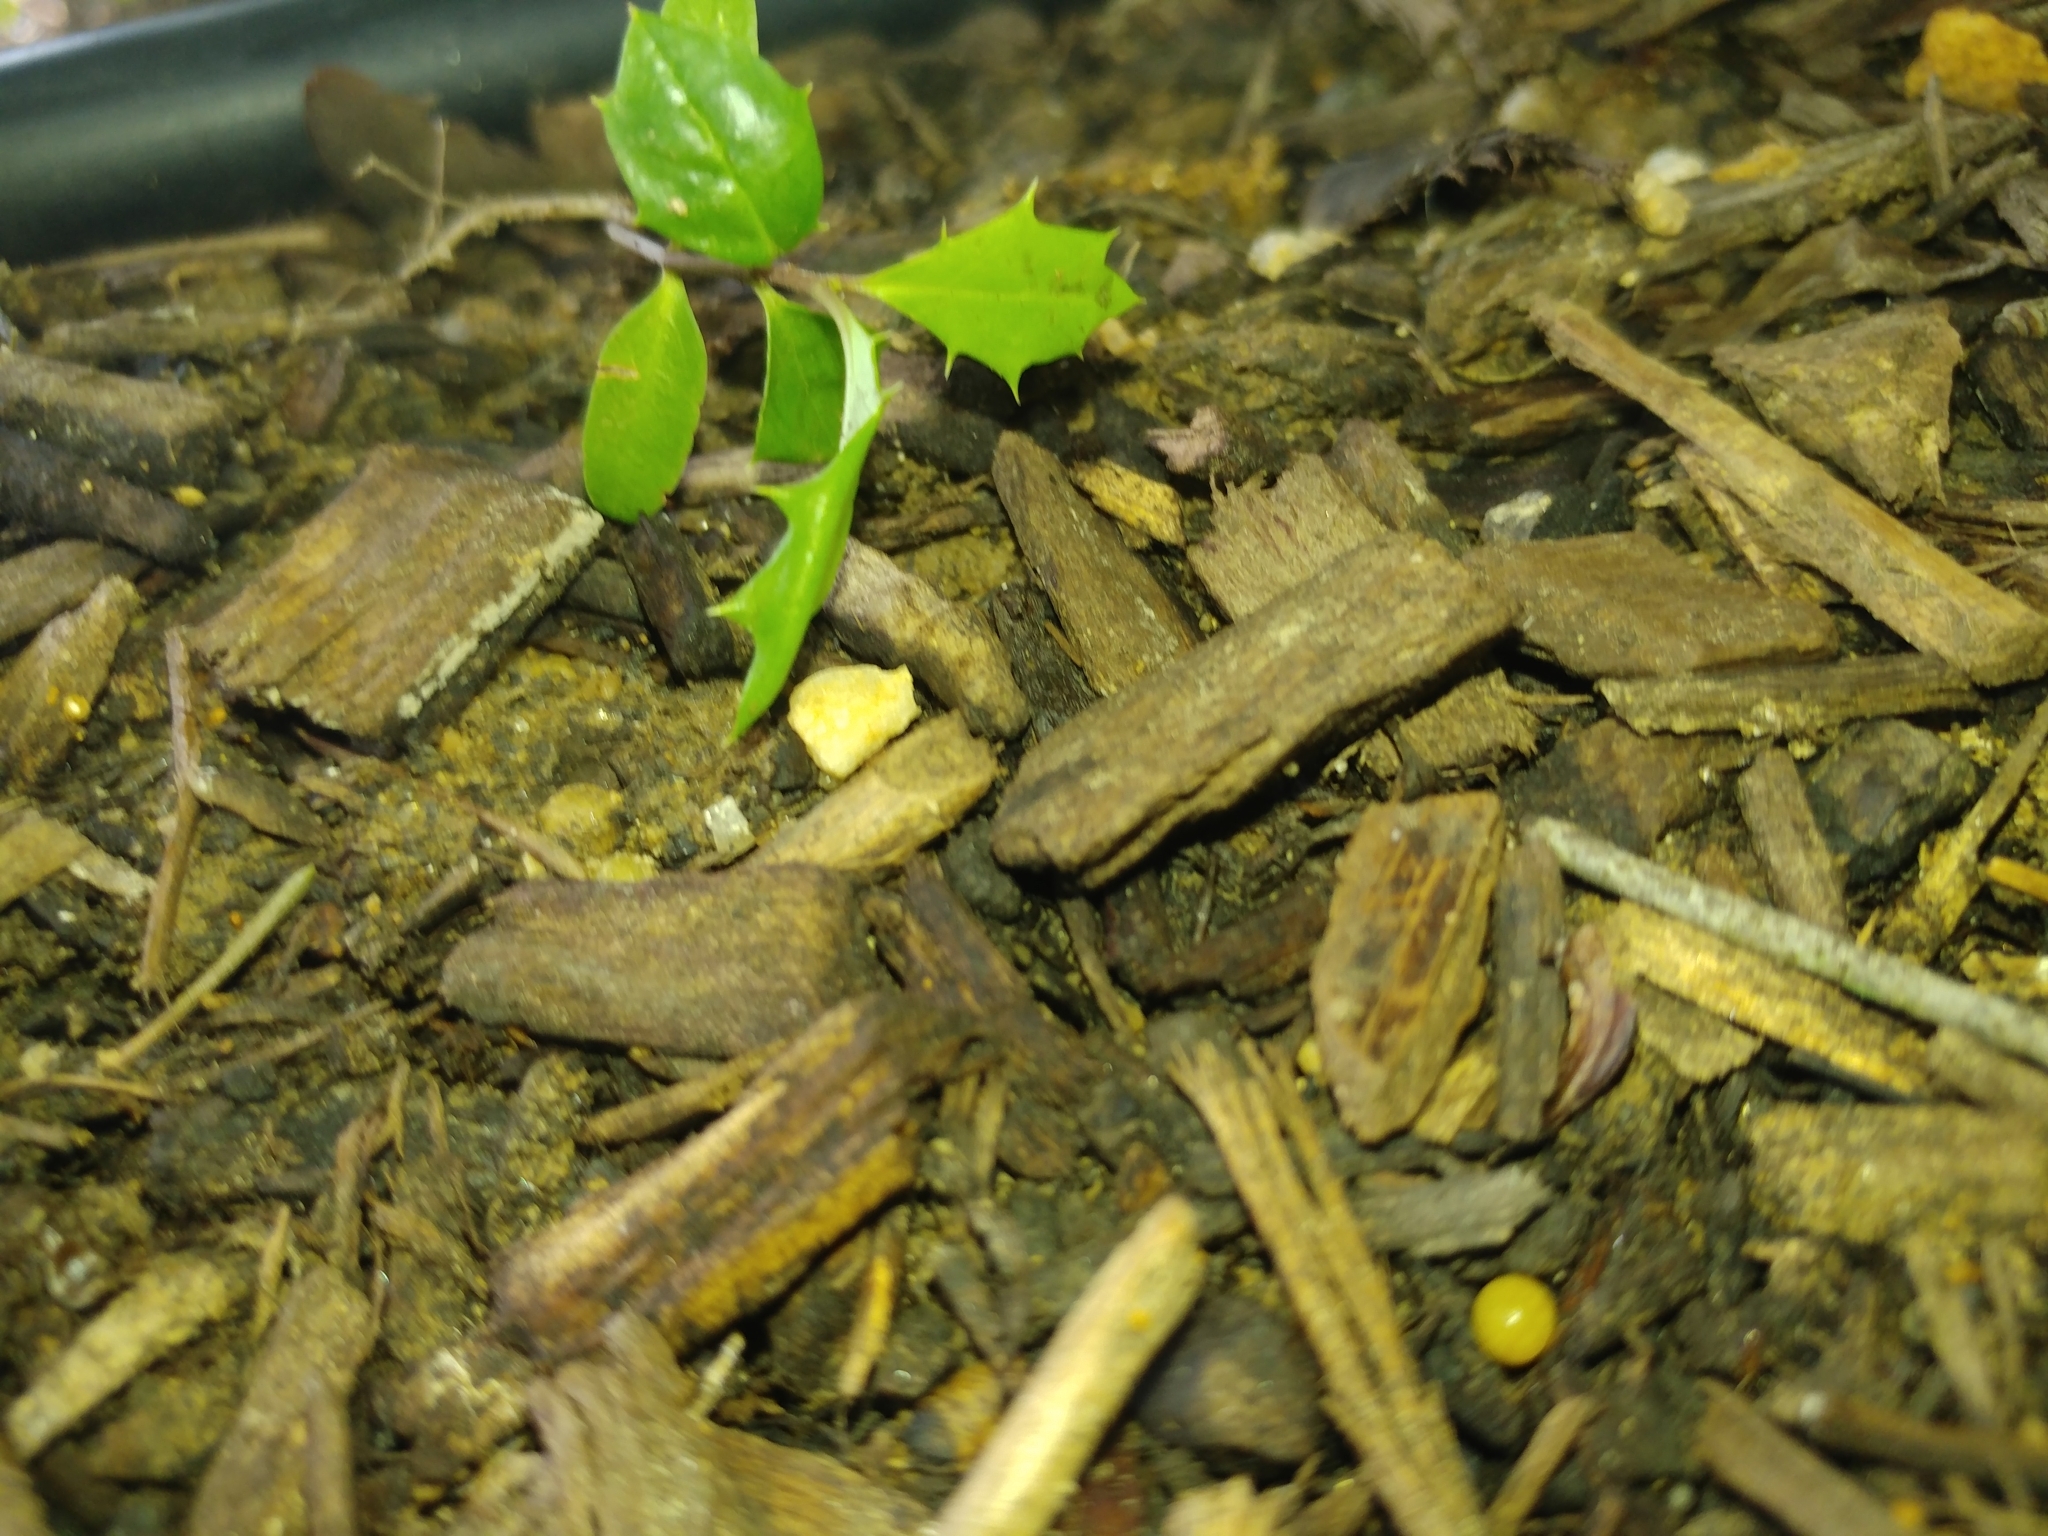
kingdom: Plantae
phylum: Tracheophyta
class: Magnoliopsida
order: Aquifoliales
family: Aquifoliaceae
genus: Ilex
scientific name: Ilex opaca
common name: American holly
